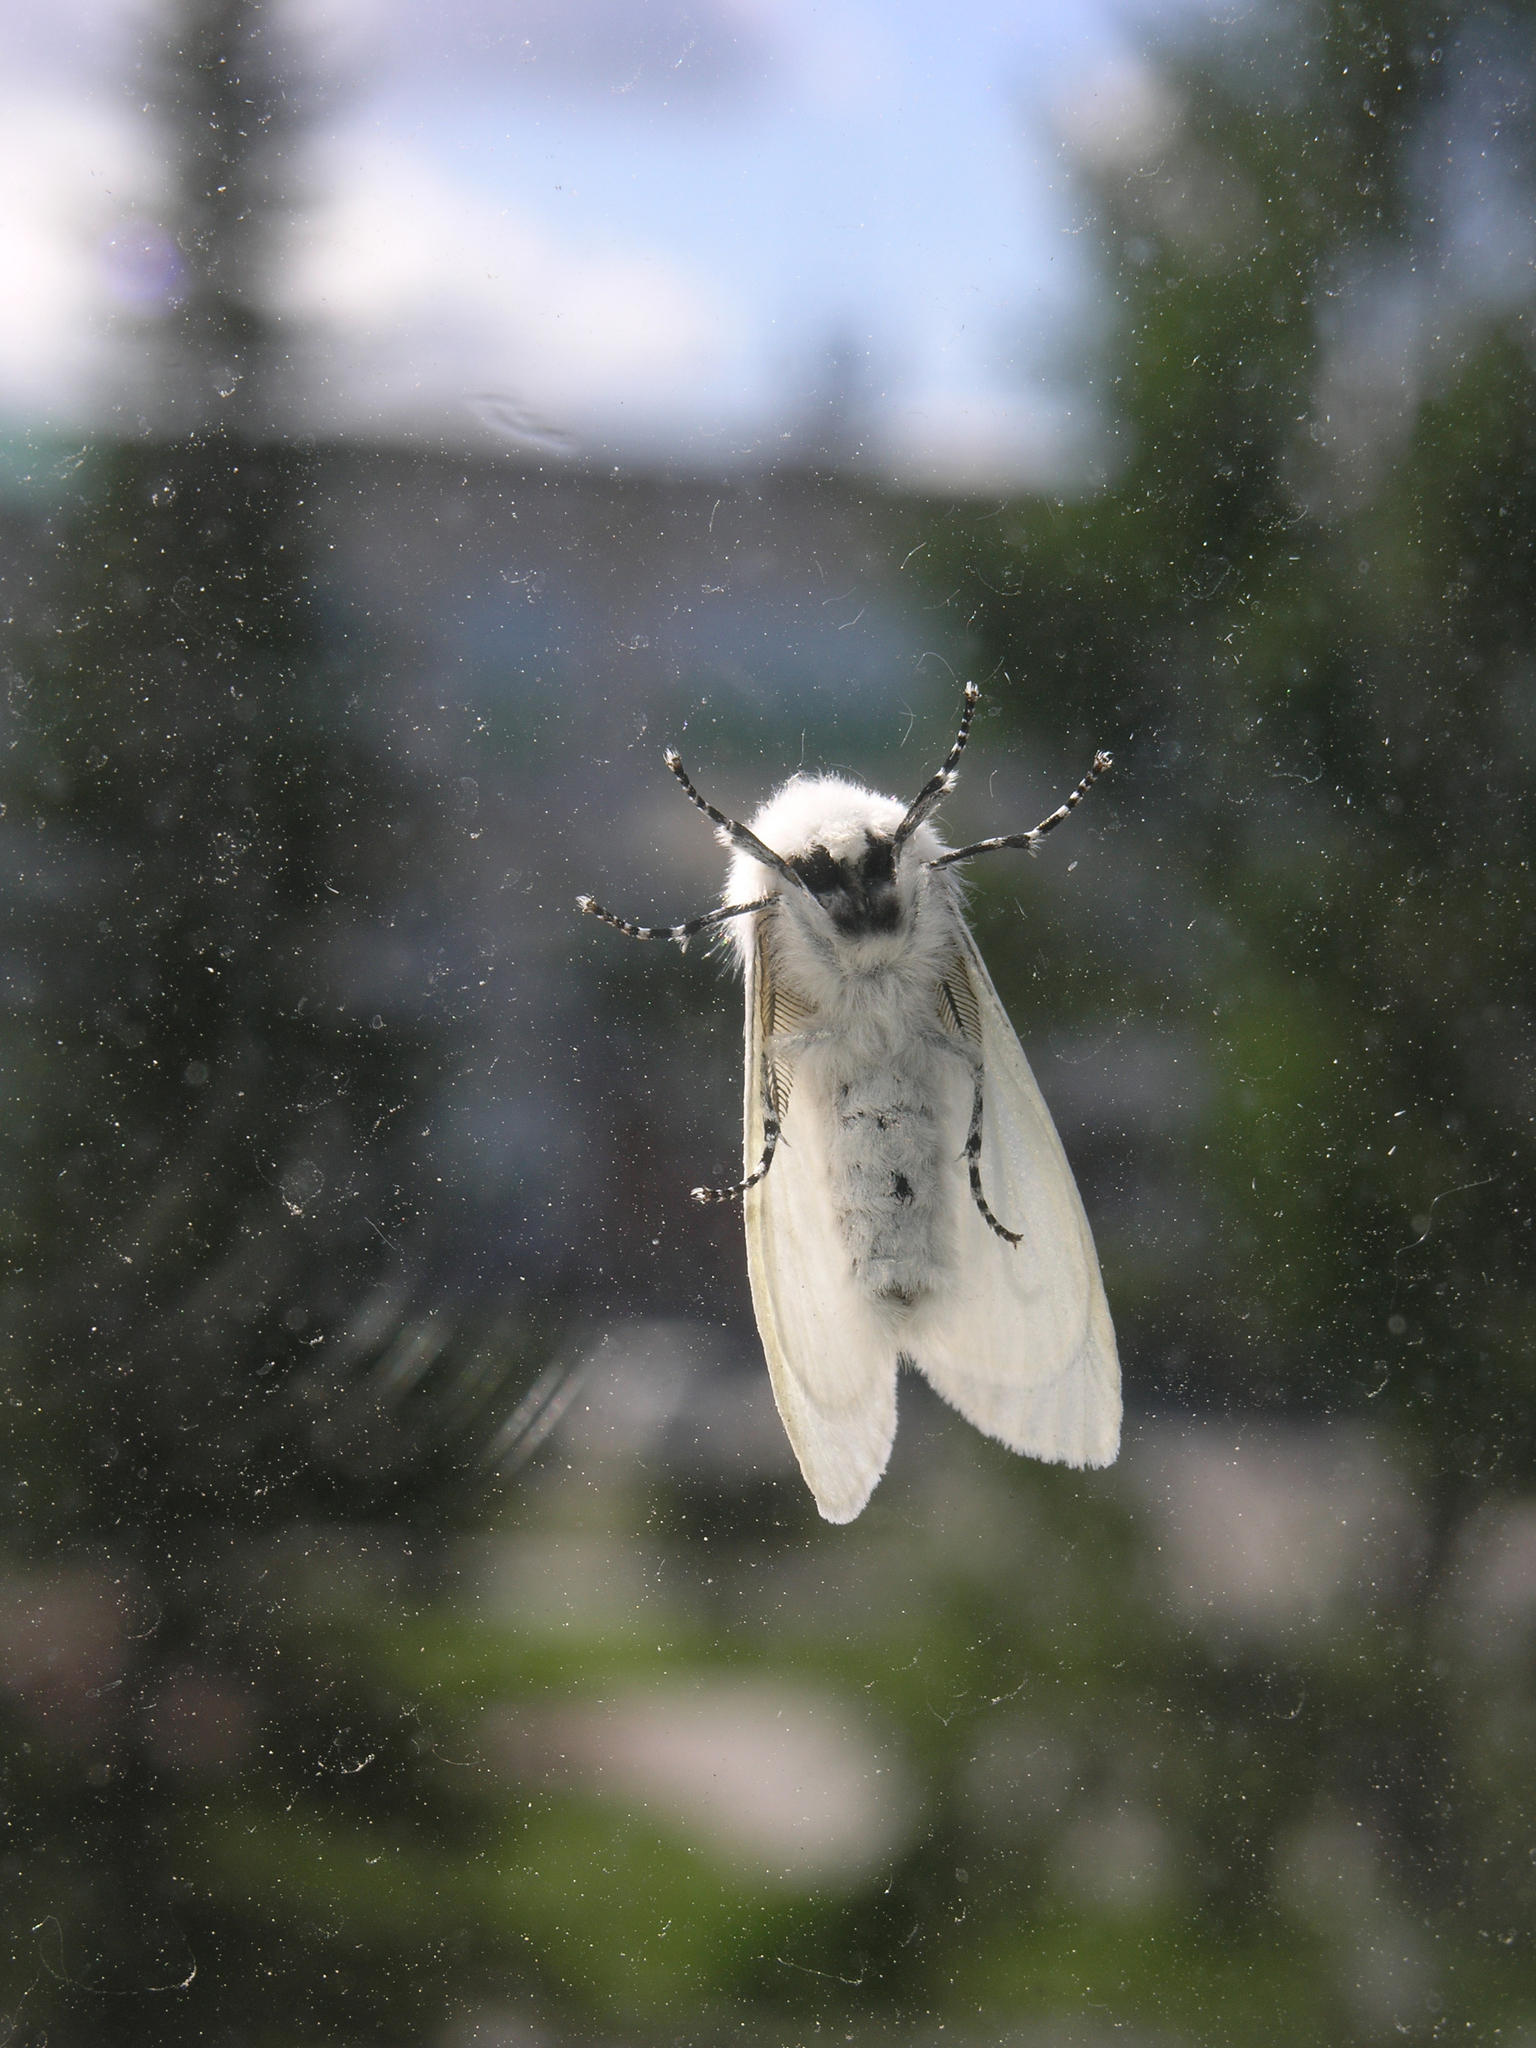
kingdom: Animalia
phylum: Arthropoda
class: Insecta
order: Lepidoptera
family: Erebidae
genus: Leucoma
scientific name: Leucoma salicis
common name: White satin moth
